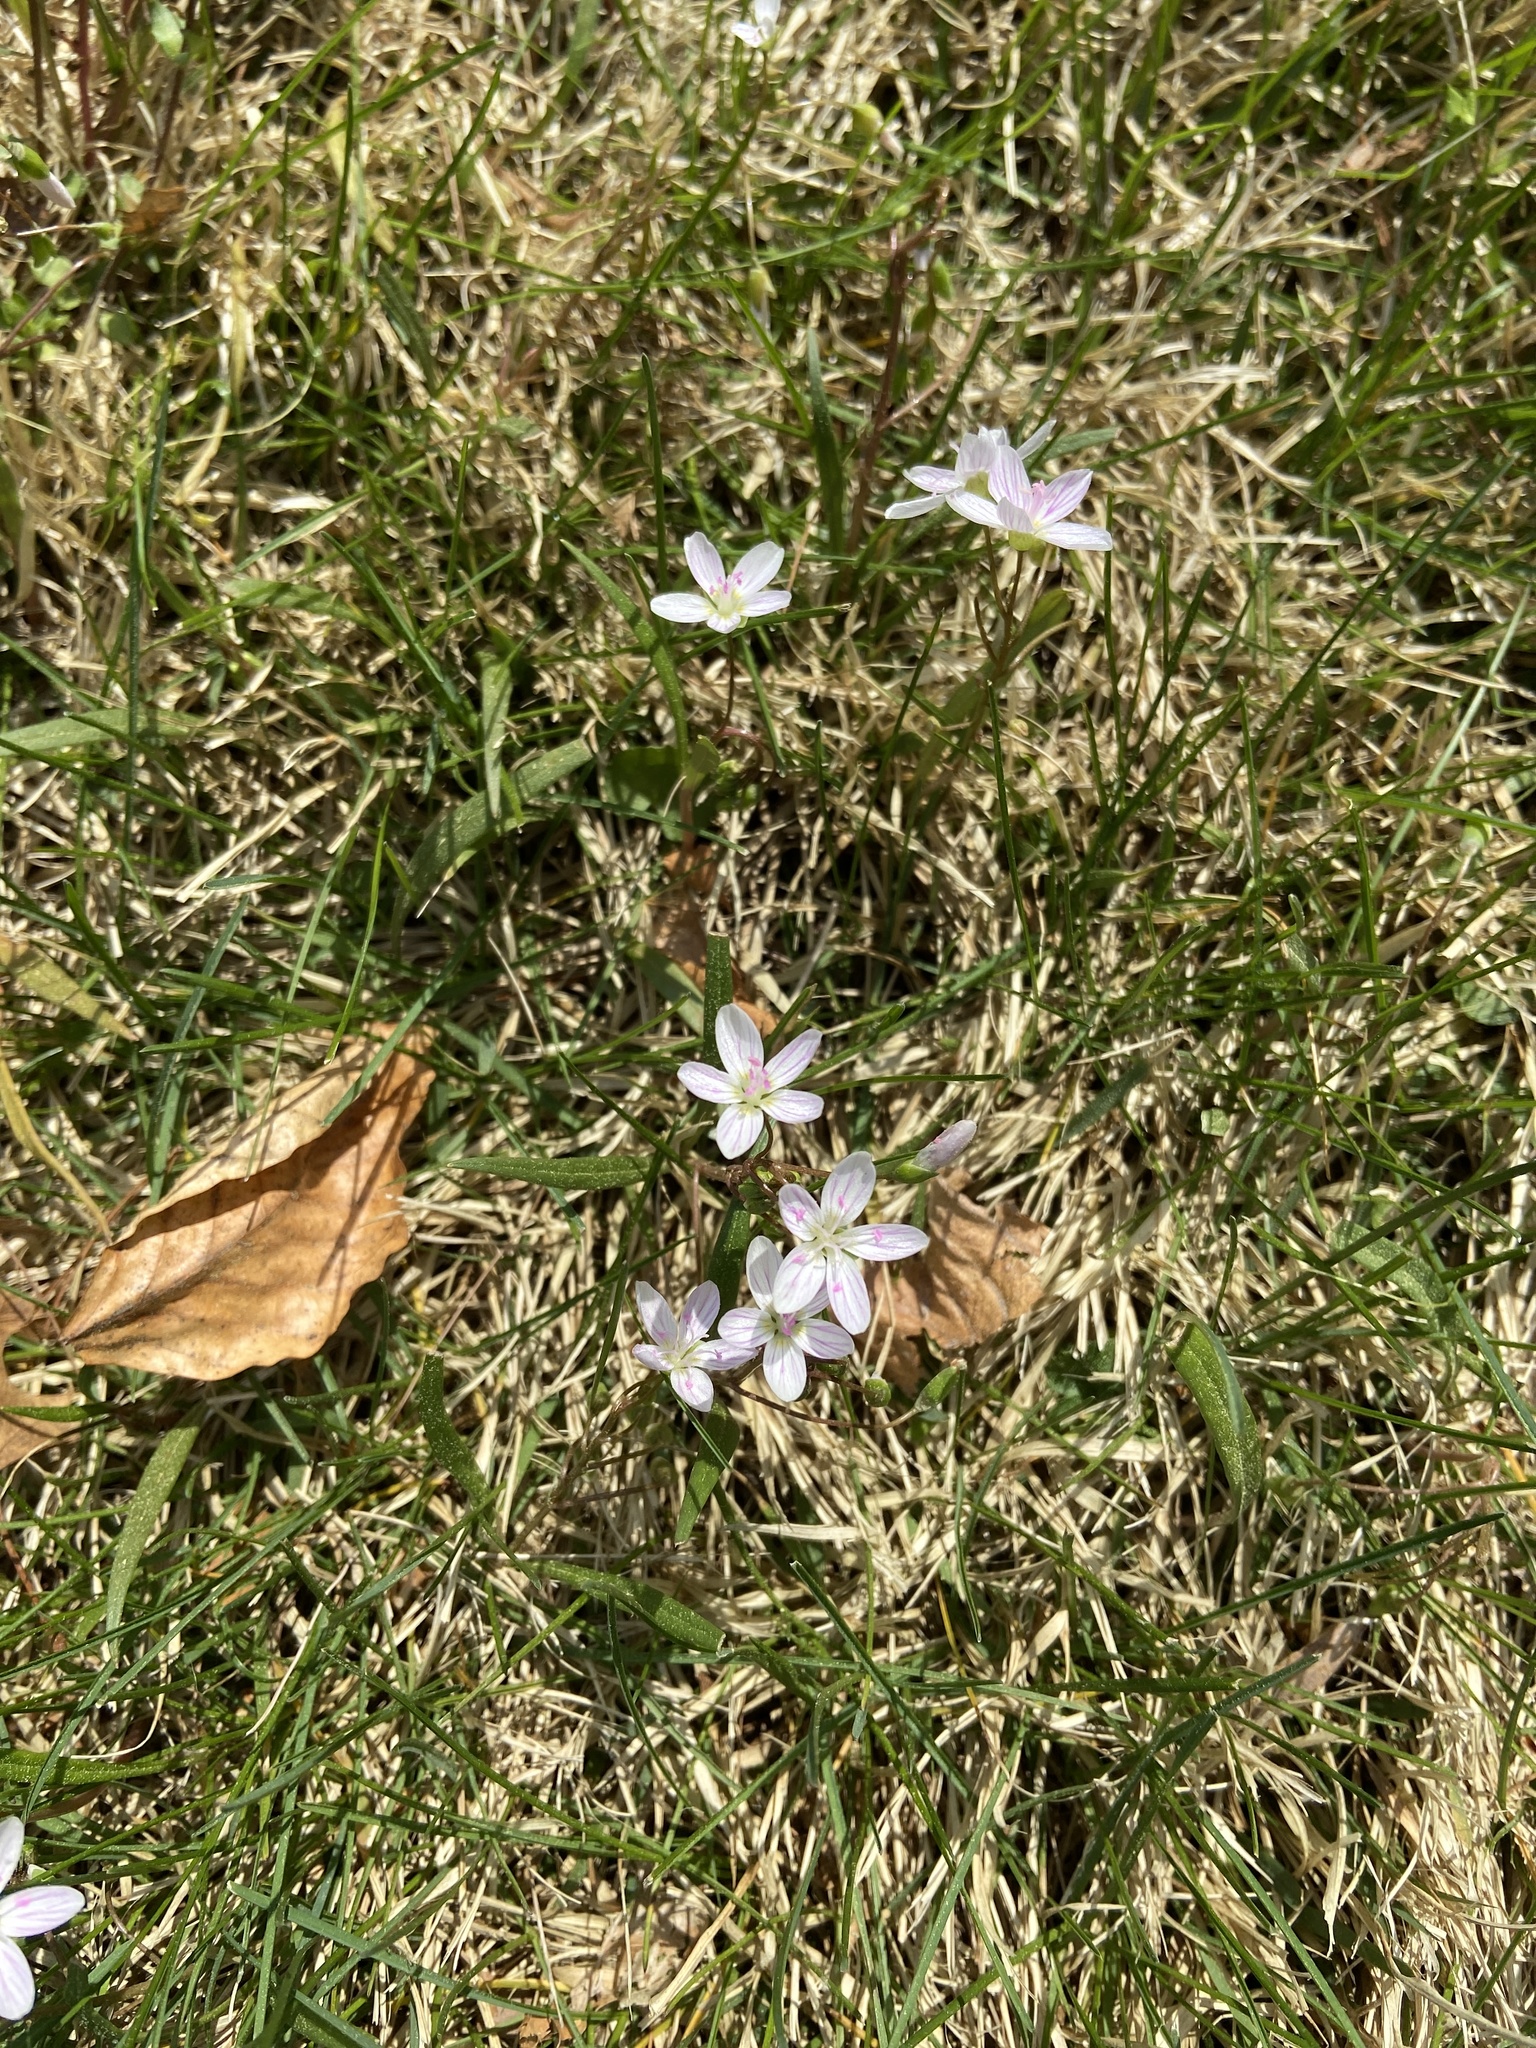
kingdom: Plantae
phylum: Tracheophyta
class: Magnoliopsida
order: Caryophyllales
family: Montiaceae
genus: Claytonia
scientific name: Claytonia virginica
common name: Virginia springbeauty
